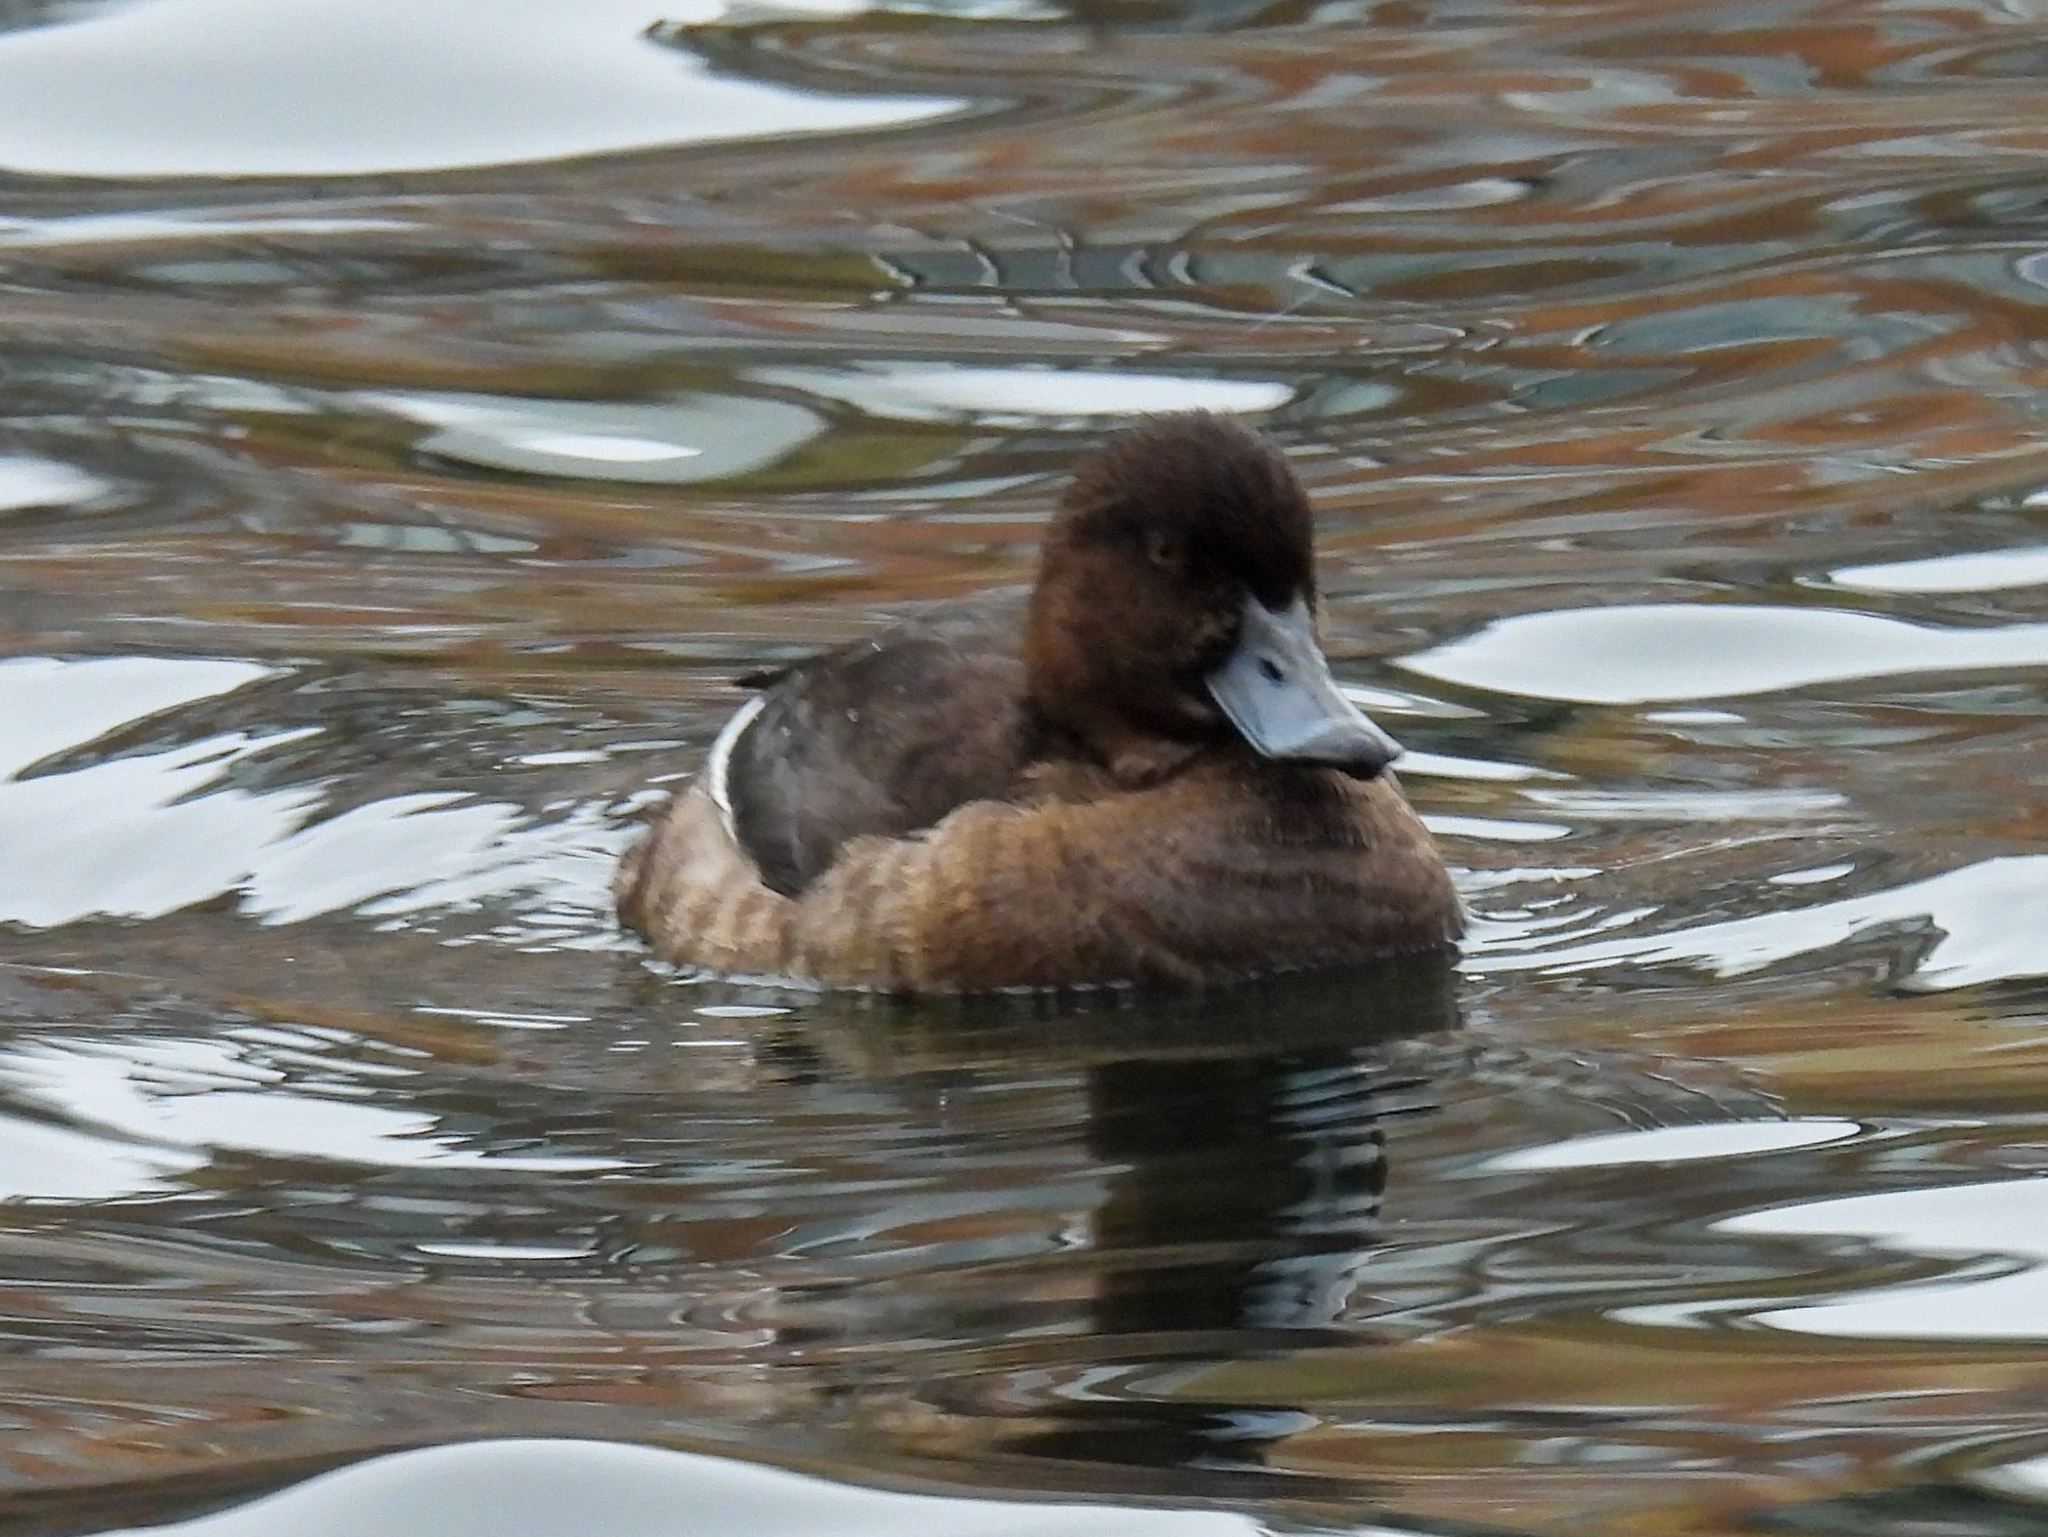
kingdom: Animalia
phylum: Chordata
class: Aves
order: Anseriformes
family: Anatidae
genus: Aythya
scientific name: Aythya fuligula
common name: Tufted duck
